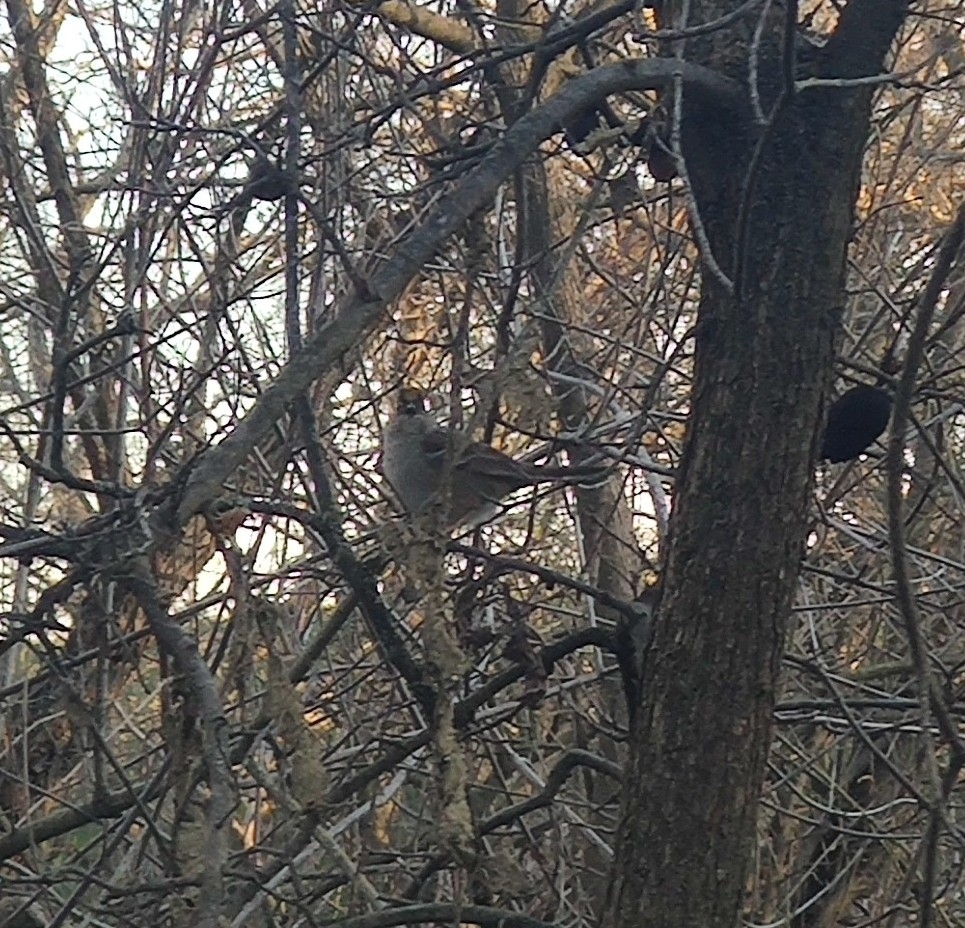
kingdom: Animalia
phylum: Chordata
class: Aves
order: Passeriformes
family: Passerellidae
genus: Zonotrichia
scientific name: Zonotrichia atricapilla
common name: Golden-crowned sparrow
